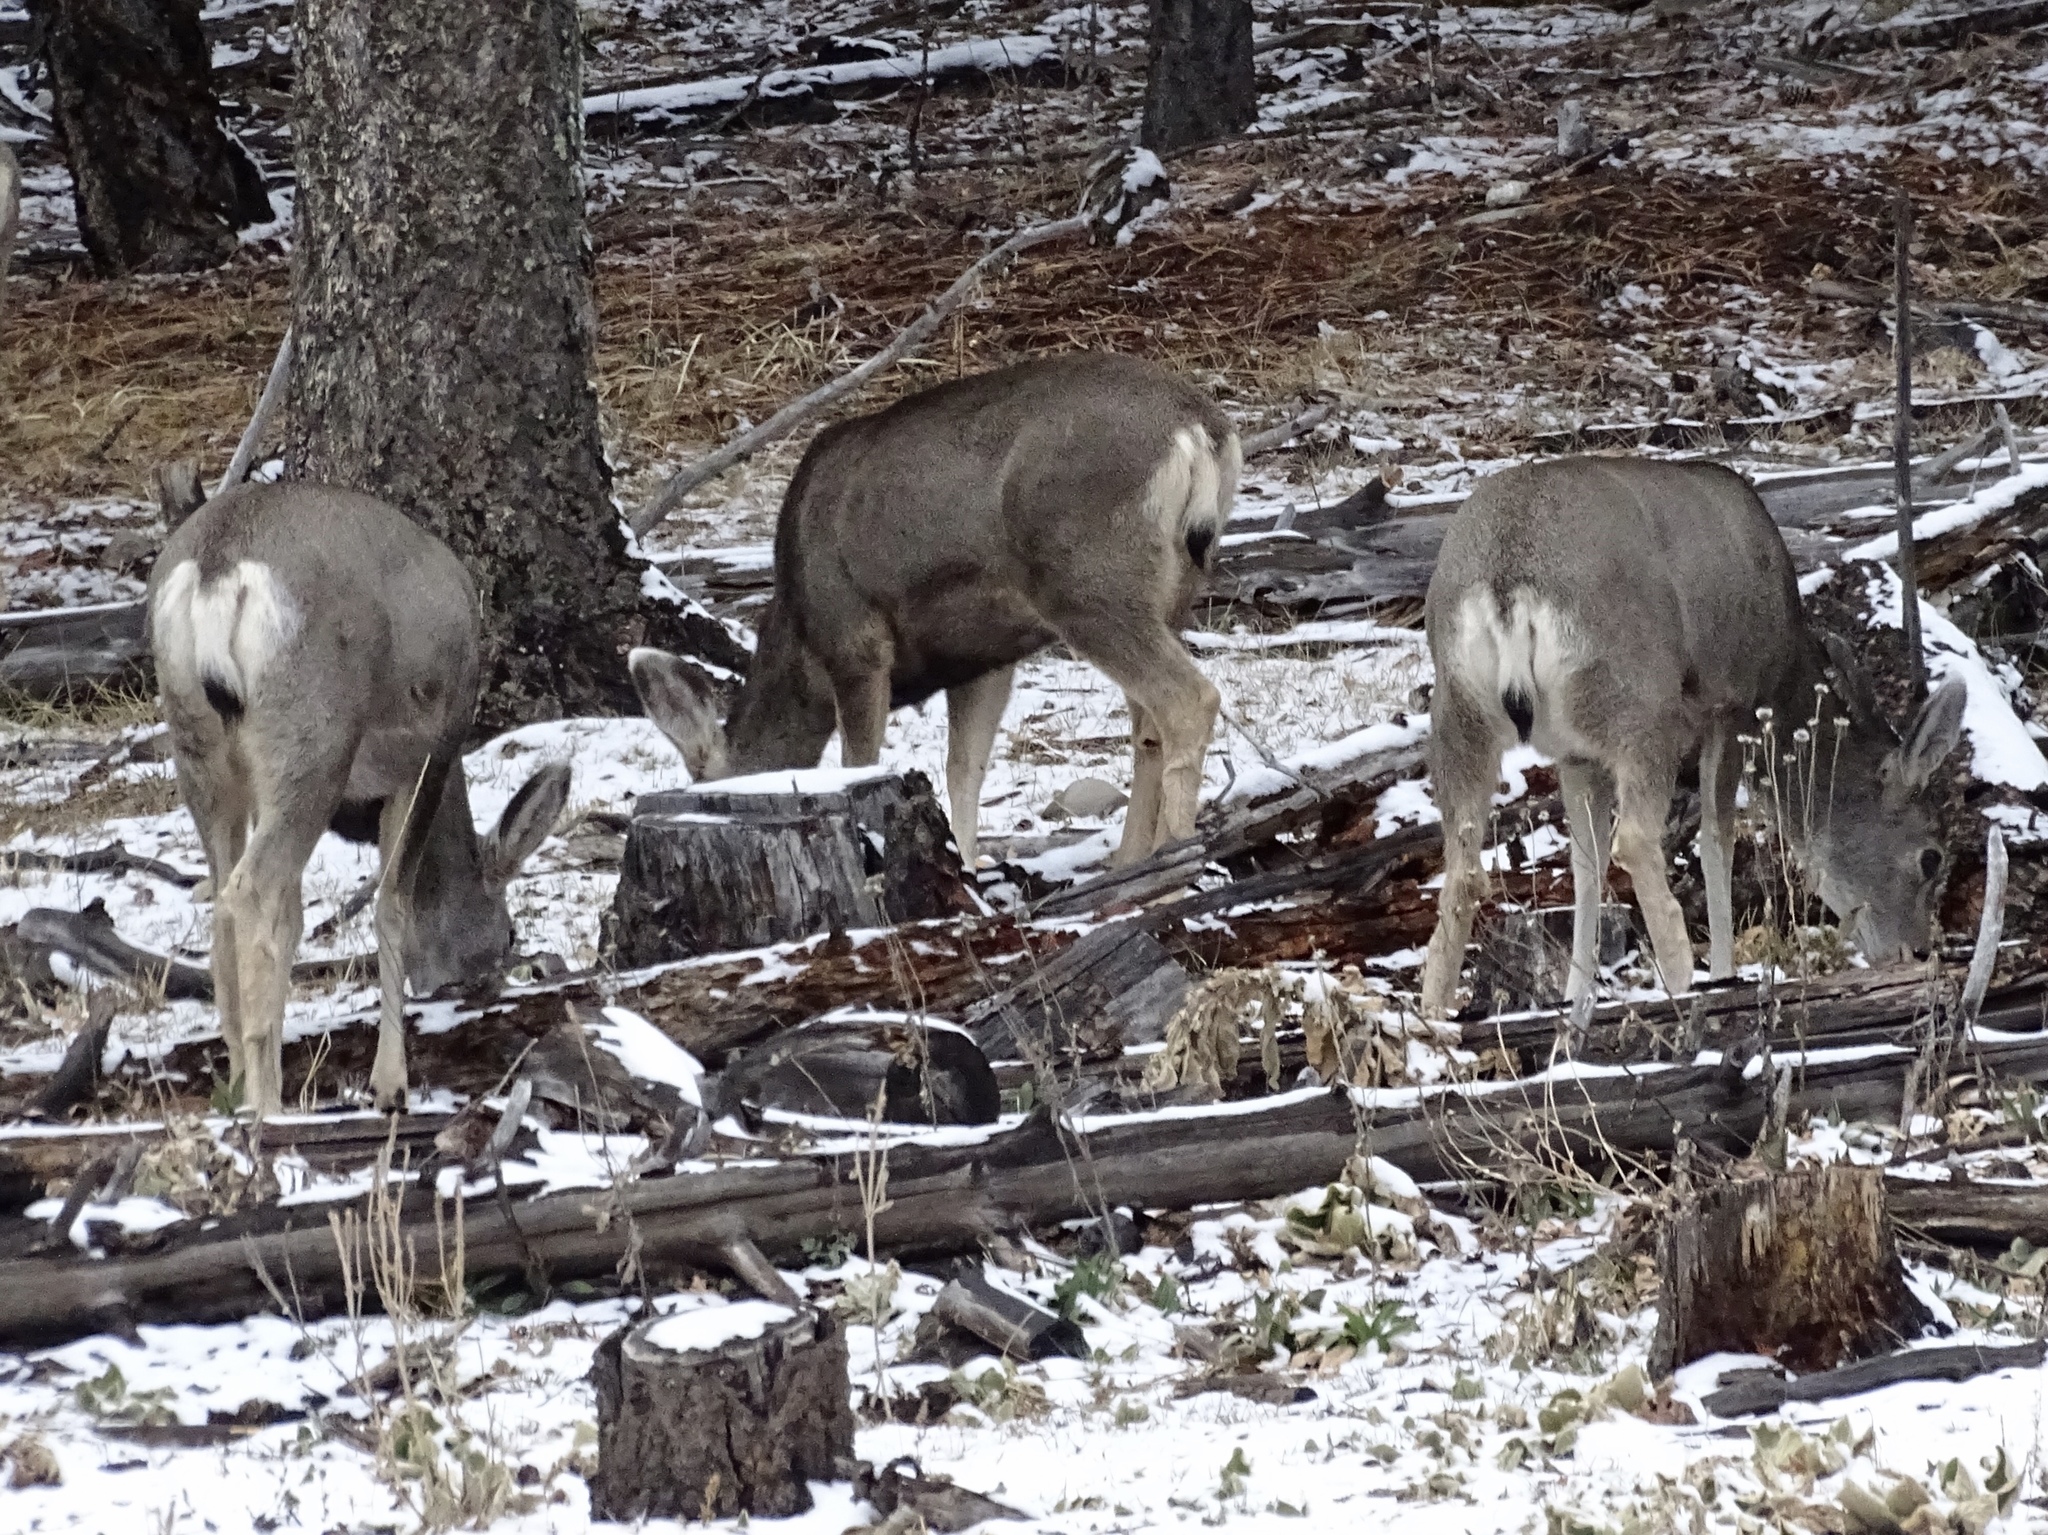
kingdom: Animalia
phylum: Chordata
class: Mammalia
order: Artiodactyla
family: Cervidae
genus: Odocoileus
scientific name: Odocoileus hemionus
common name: Mule deer
